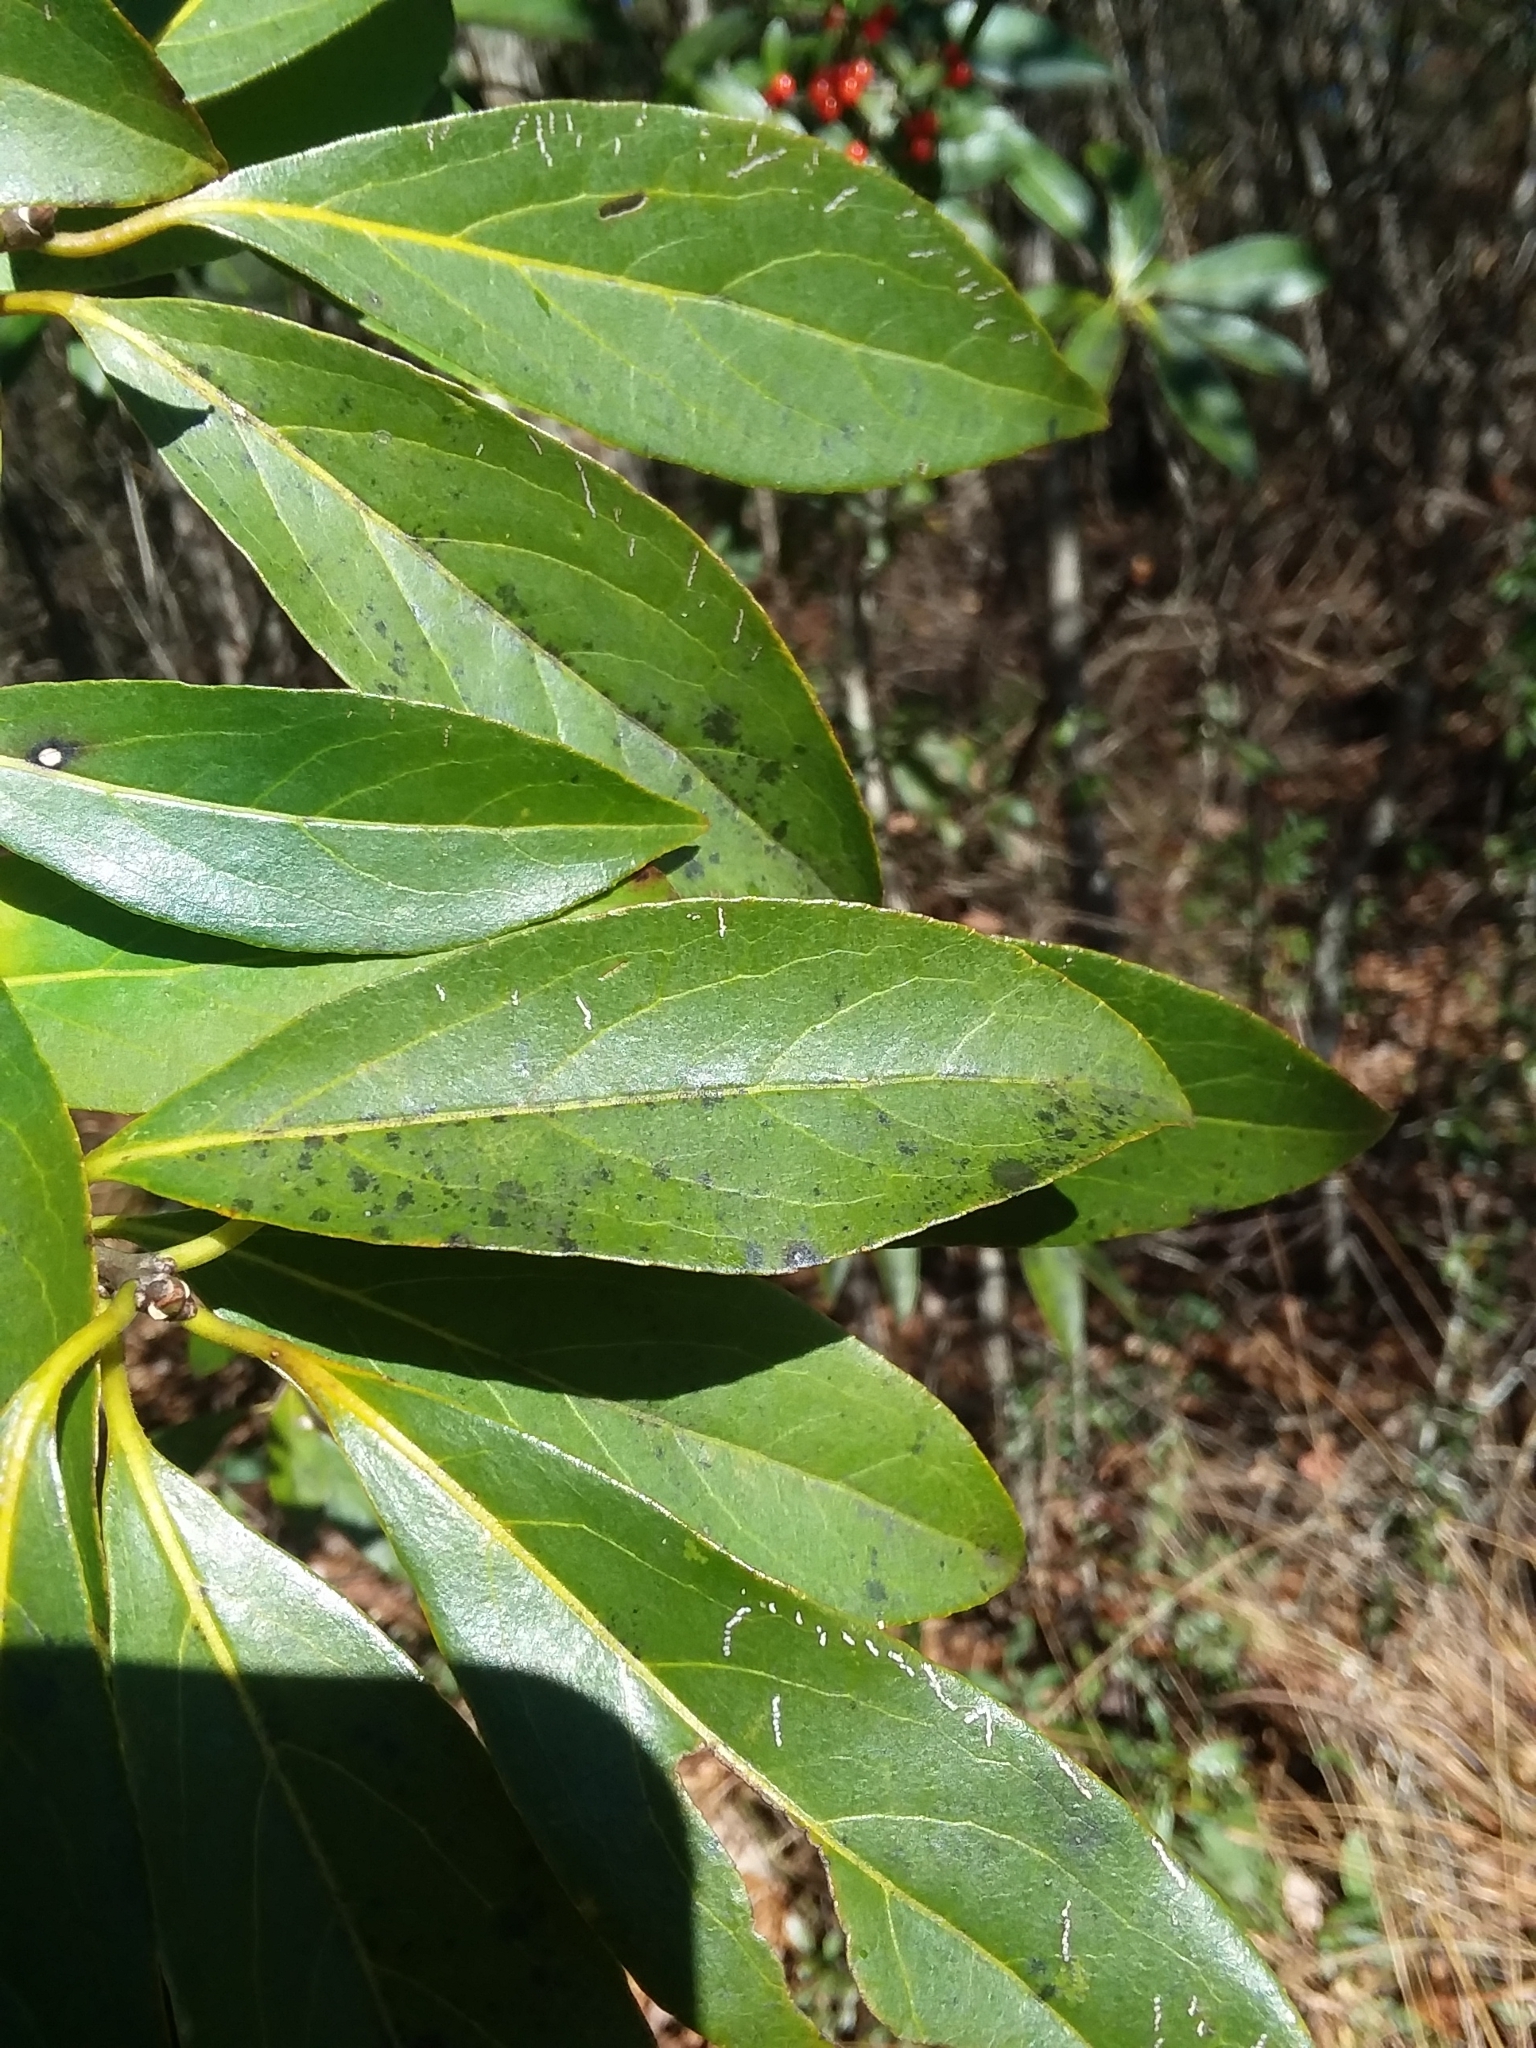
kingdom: Plantae
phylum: Tracheophyta
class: Magnoliopsida
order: Ericales
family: Symplocaceae
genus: Symplocos
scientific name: Symplocos tinctoria
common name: Horse-sugar
